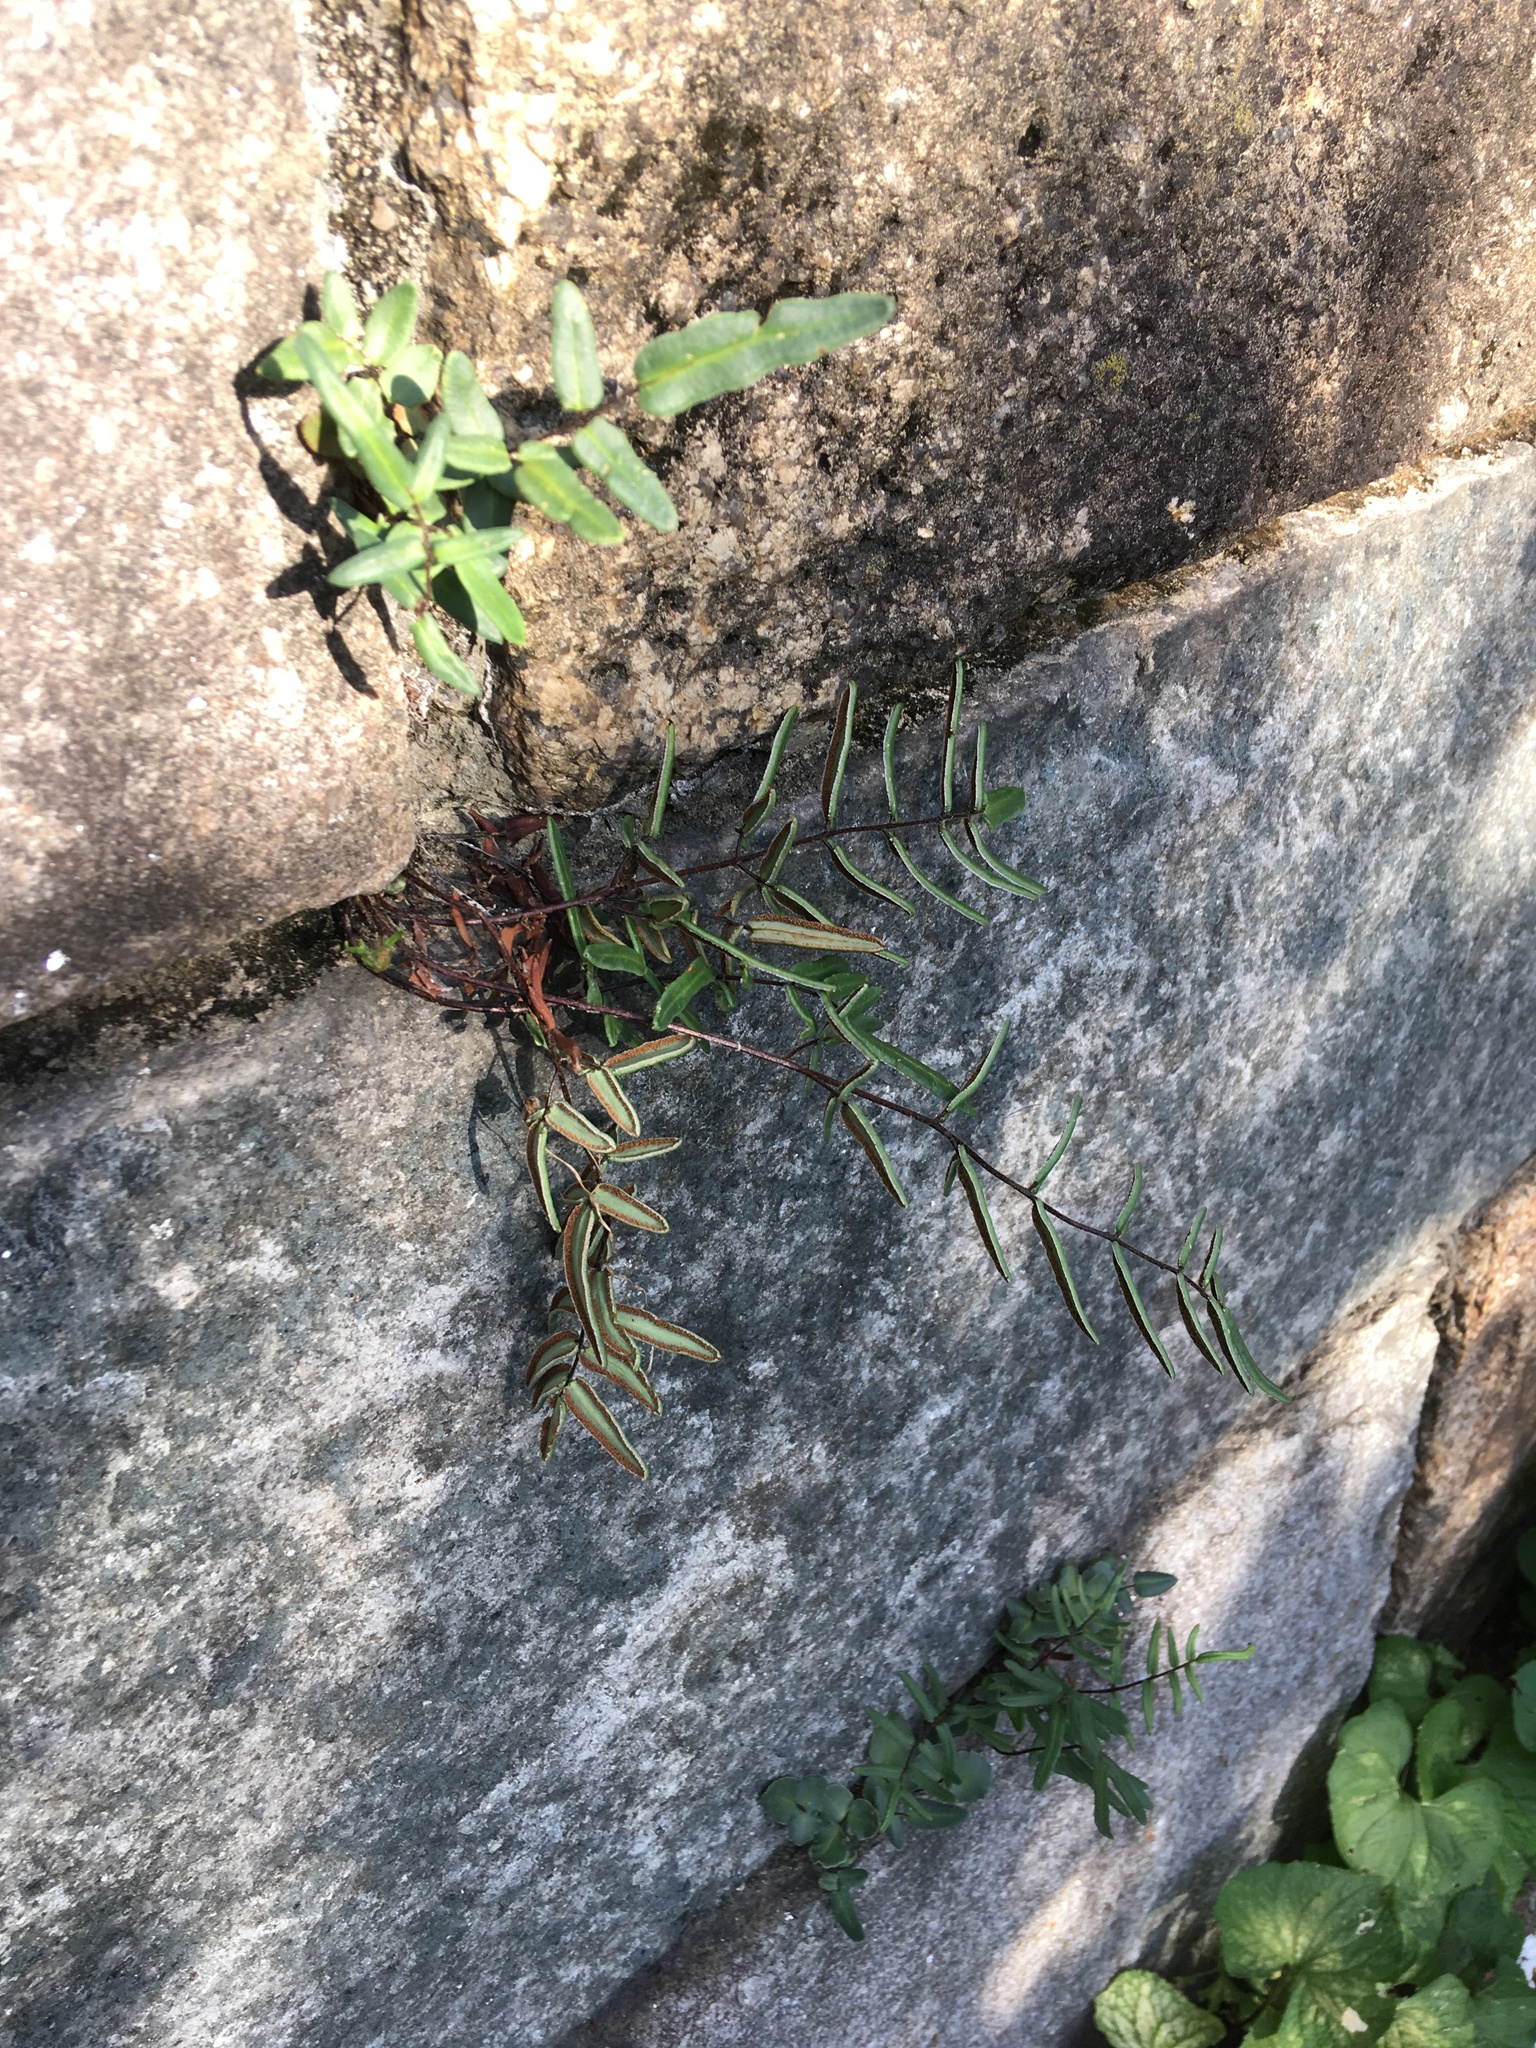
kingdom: Plantae
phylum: Tracheophyta
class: Polypodiopsida
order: Polypodiales
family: Pteridaceae
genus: Pellaea
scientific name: Pellaea atropurpurea
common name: Hairy cliffbrake
